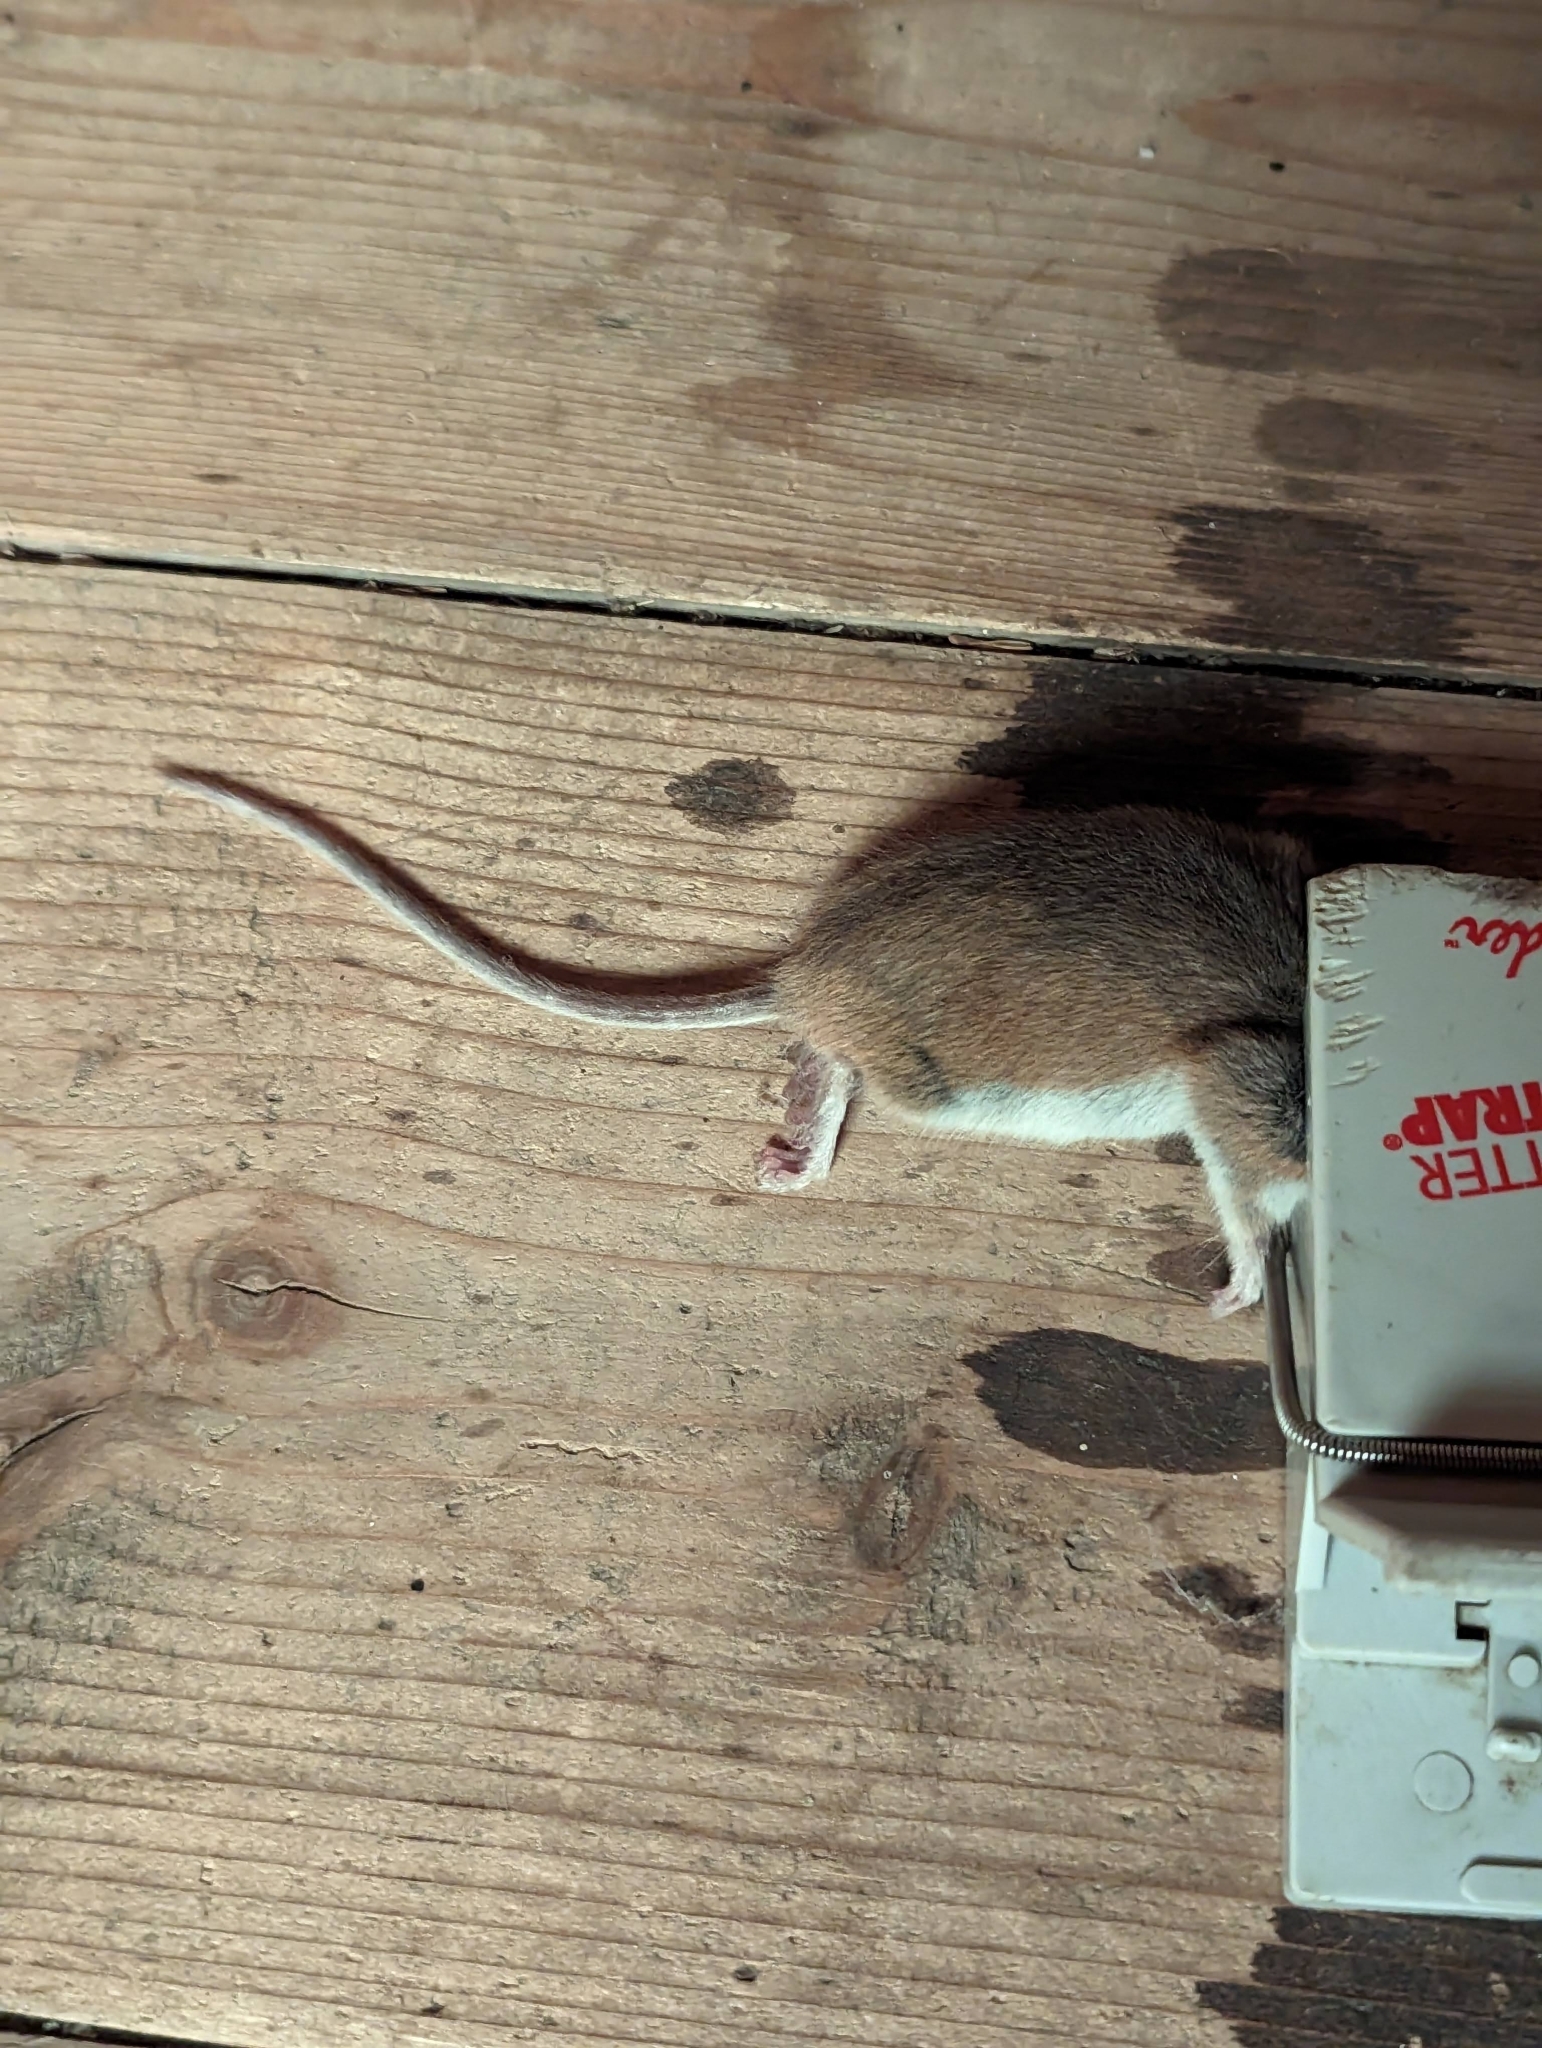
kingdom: Animalia
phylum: Chordata
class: Mammalia
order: Rodentia
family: Cricetidae
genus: Peromyscus
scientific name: Peromyscus leucopus
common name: White-footed deermouse
